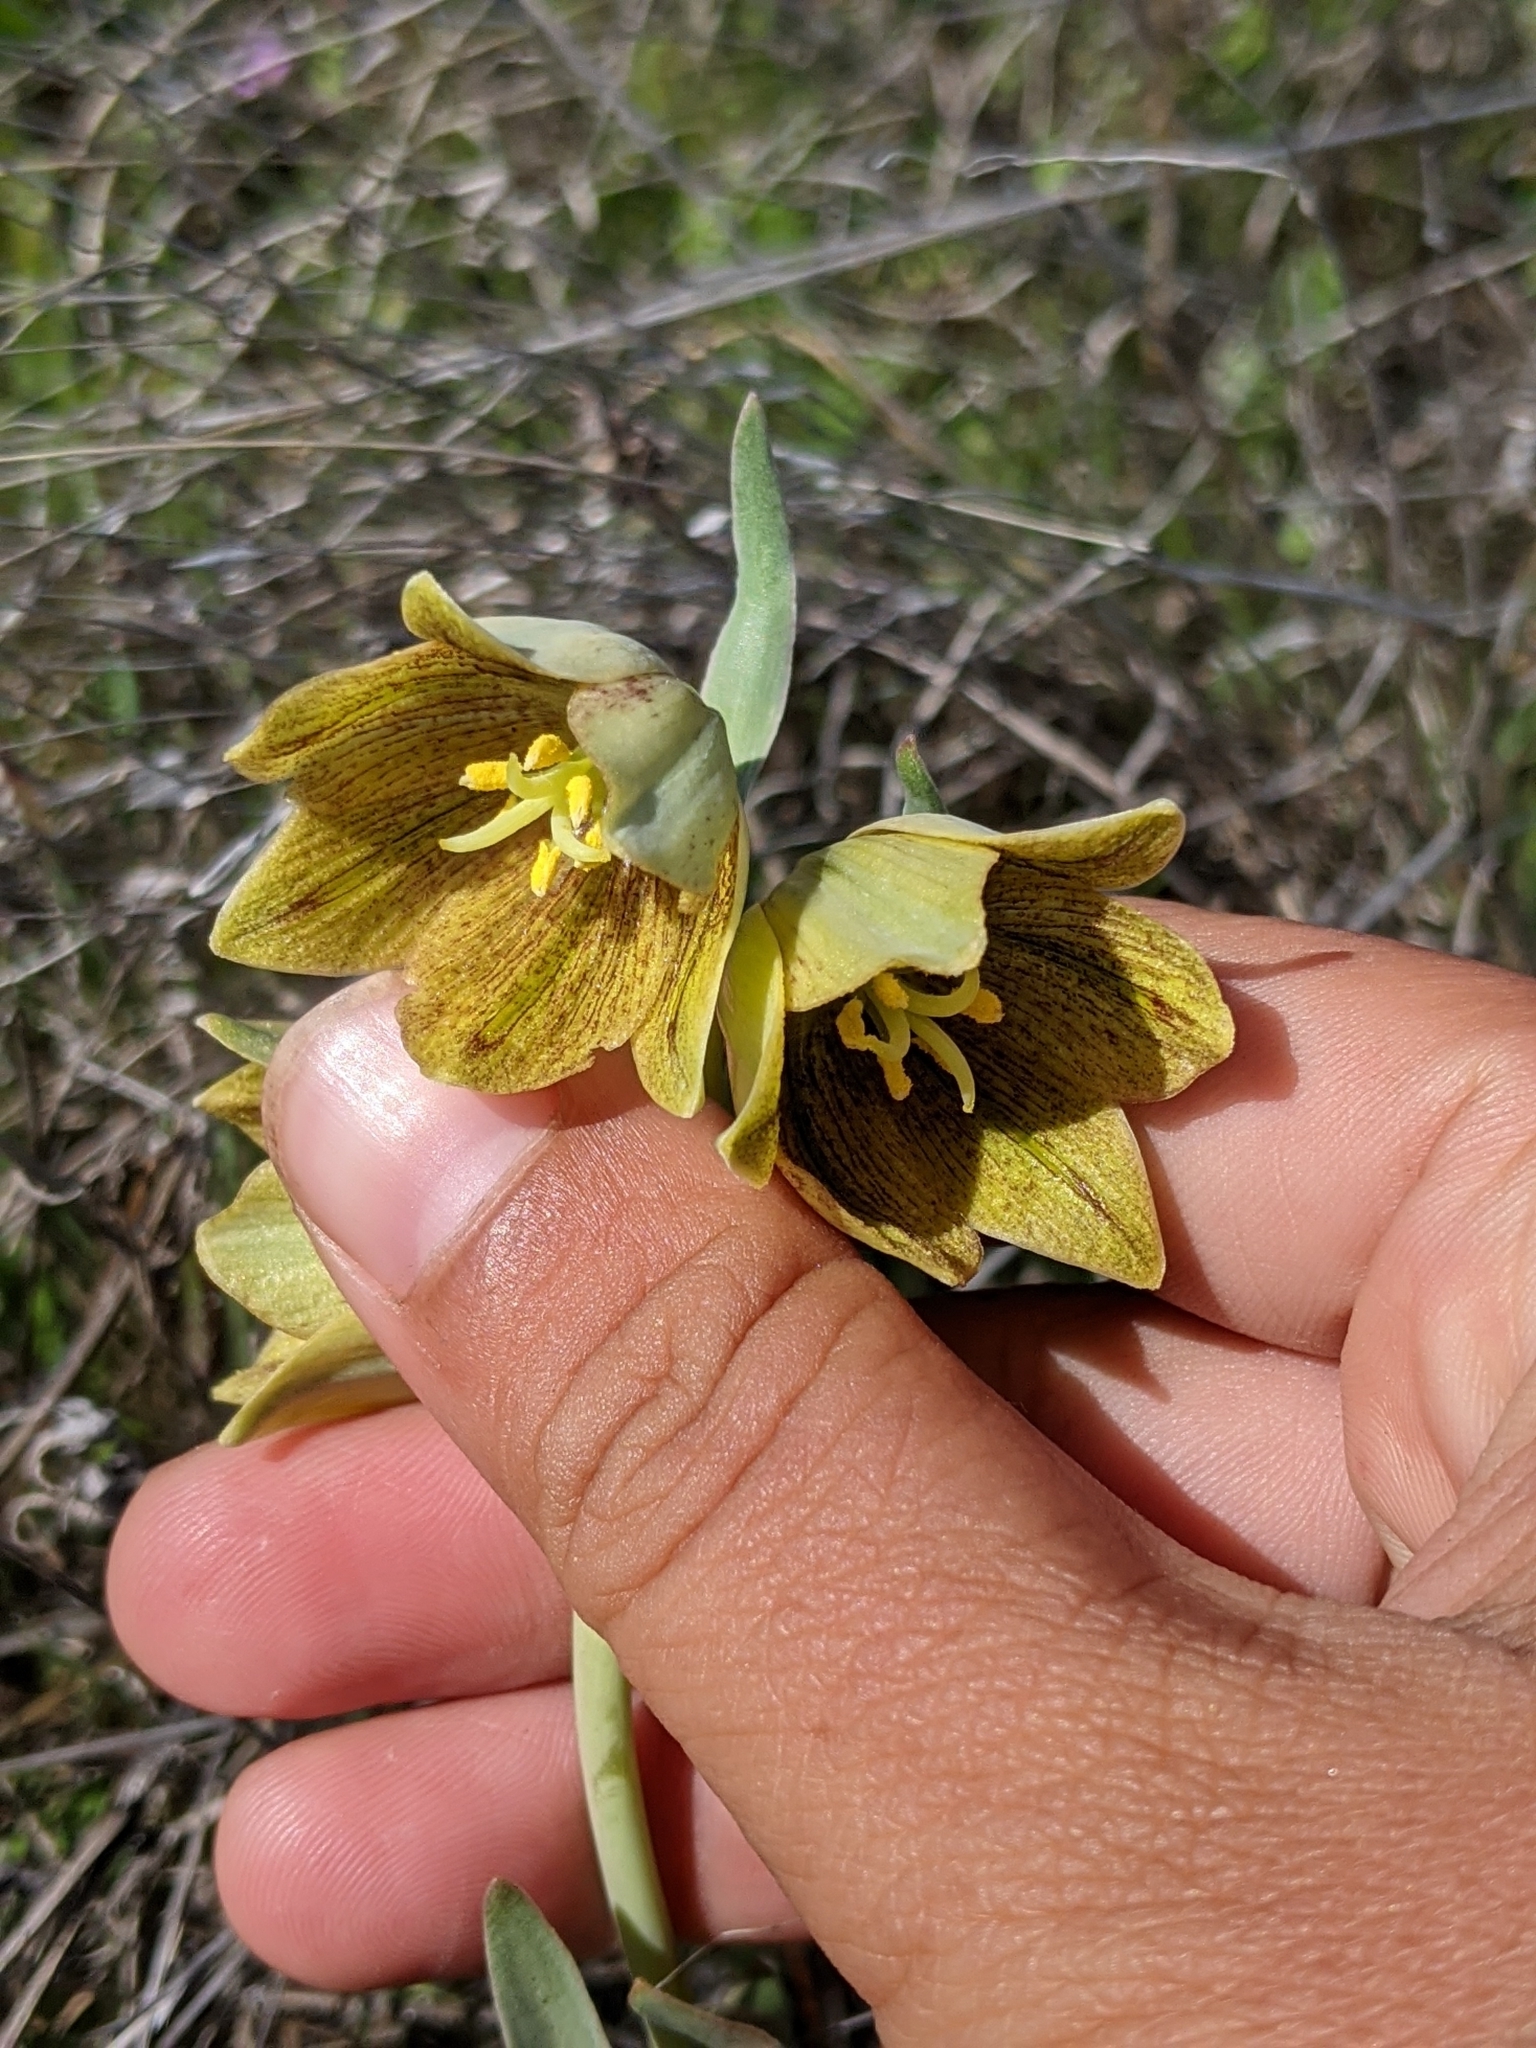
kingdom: Plantae
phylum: Tracheophyta
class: Liliopsida
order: Liliales
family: Liliaceae
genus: Fritillaria
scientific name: Fritillaria agrestis
